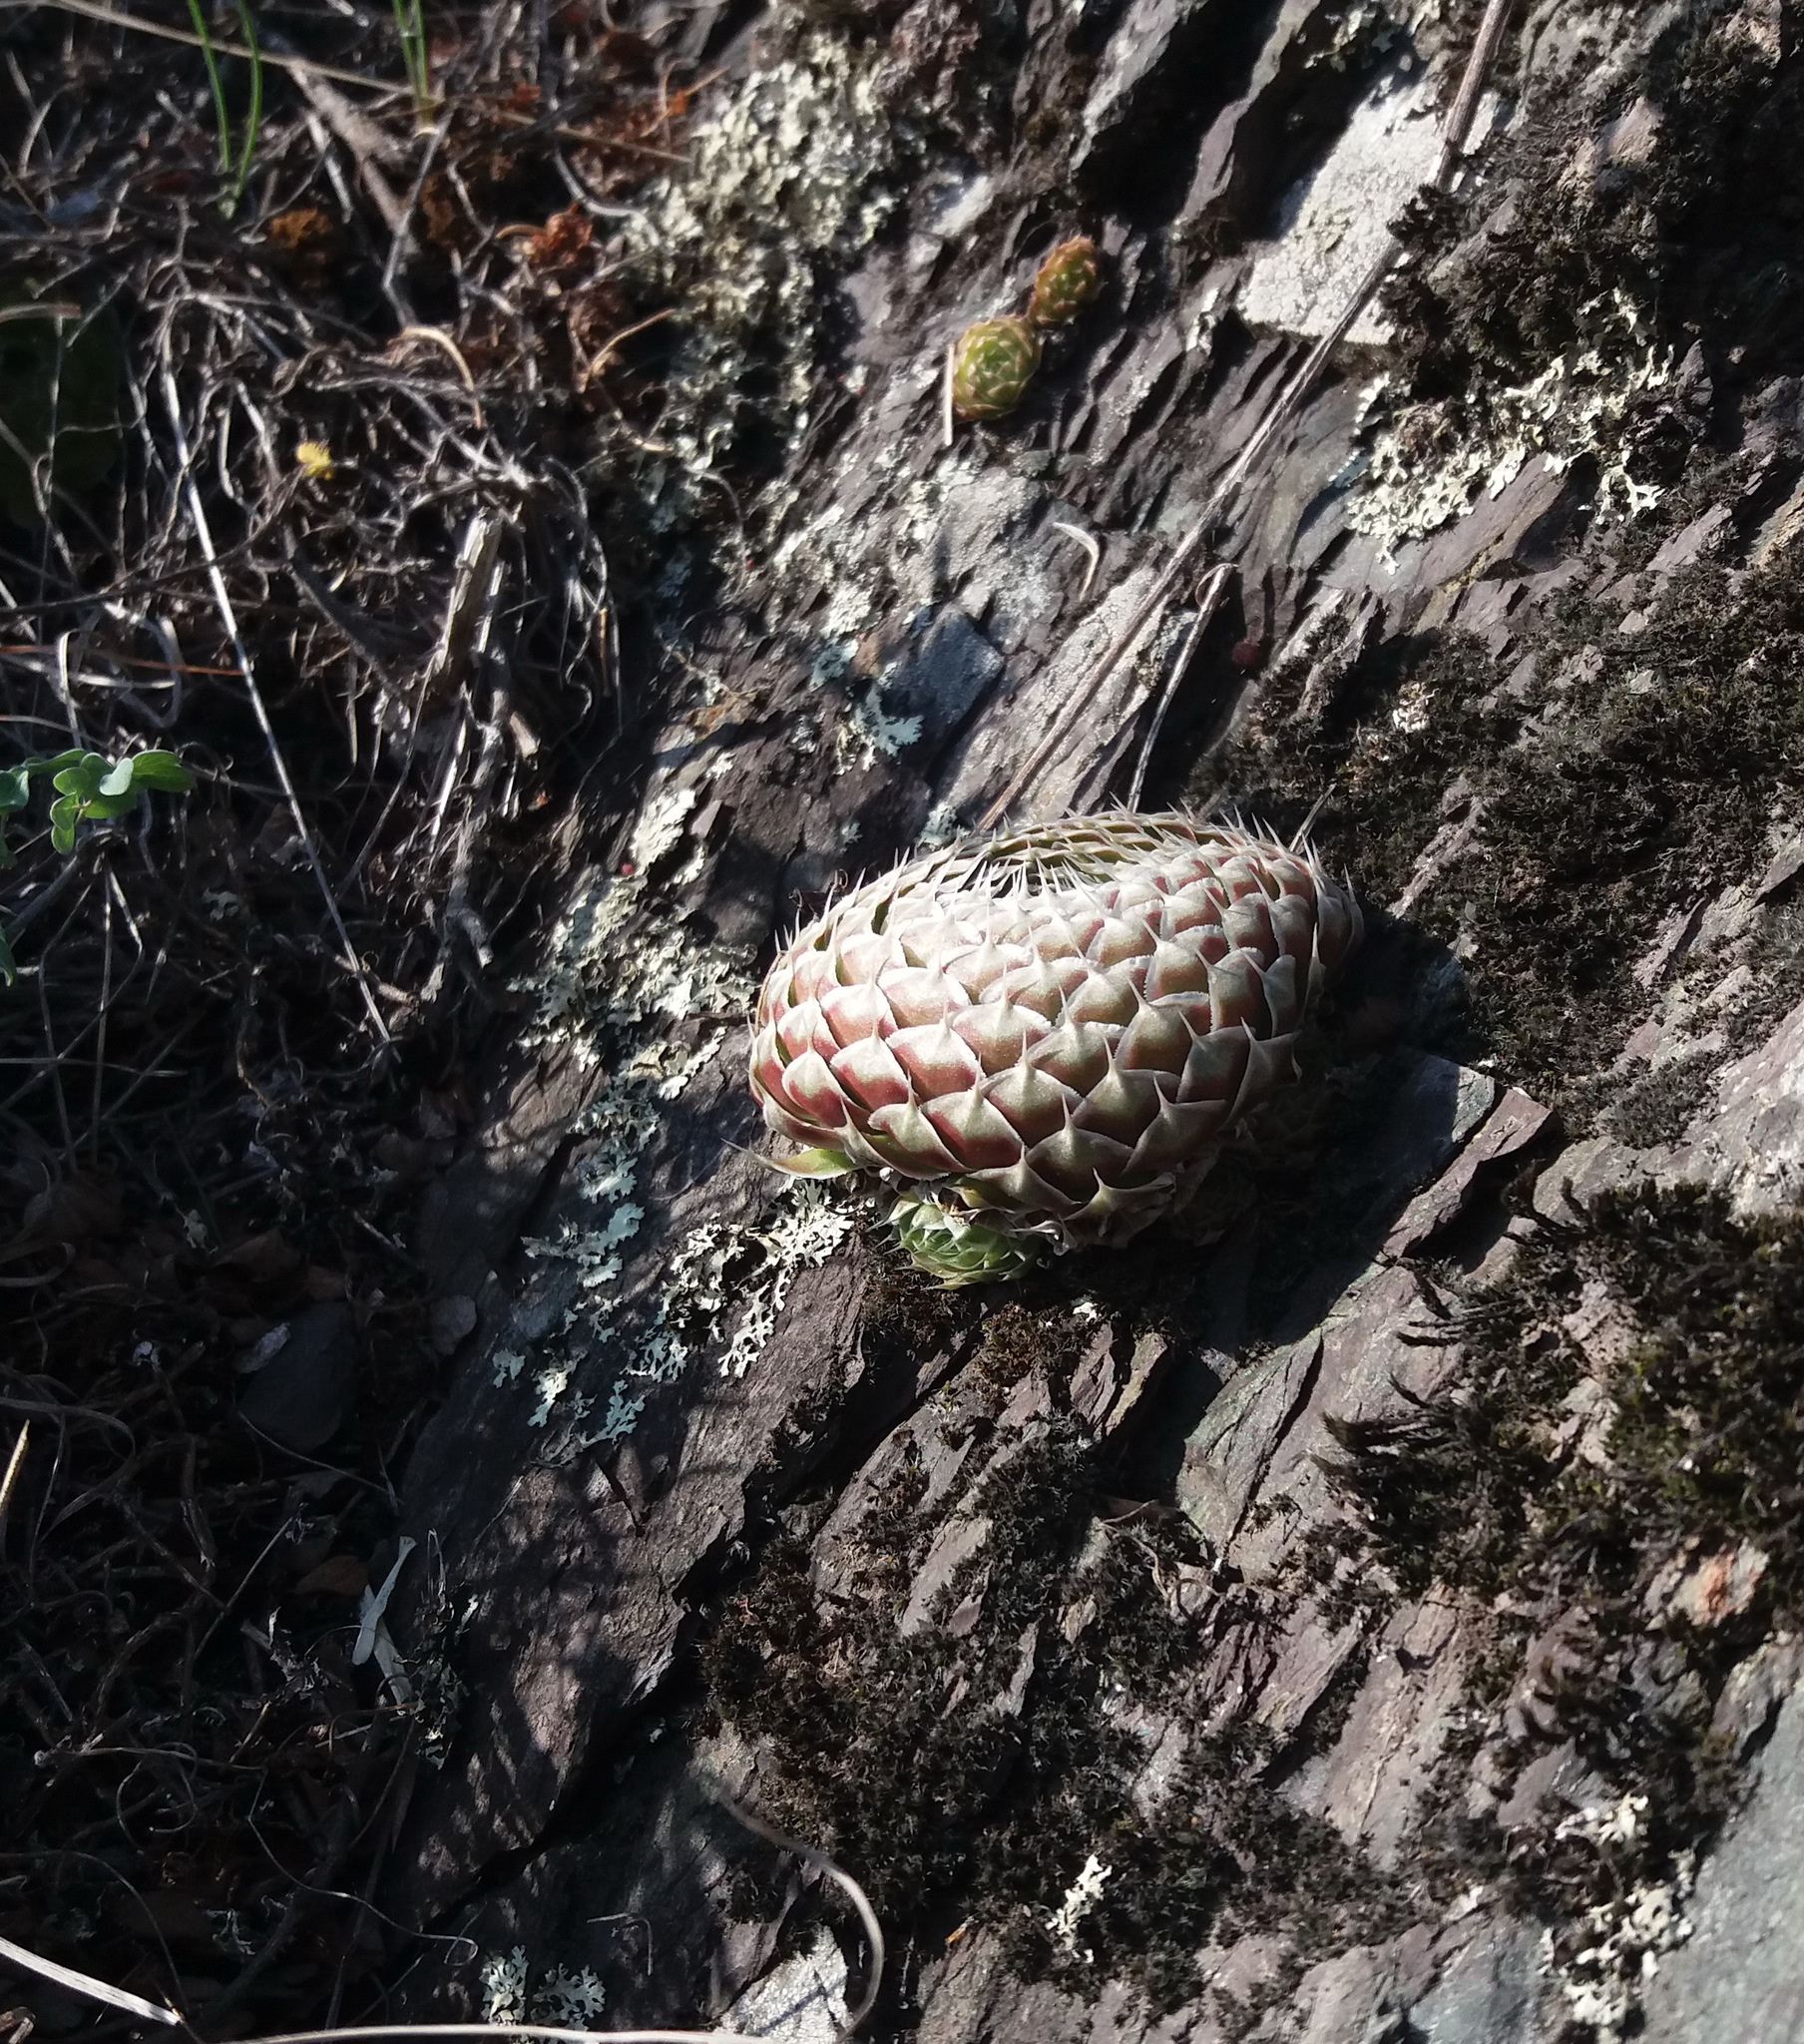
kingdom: Plantae
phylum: Tracheophyta
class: Magnoliopsida
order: Saxifragales
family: Crassulaceae
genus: Orostachys
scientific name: Orostachys spinosa
